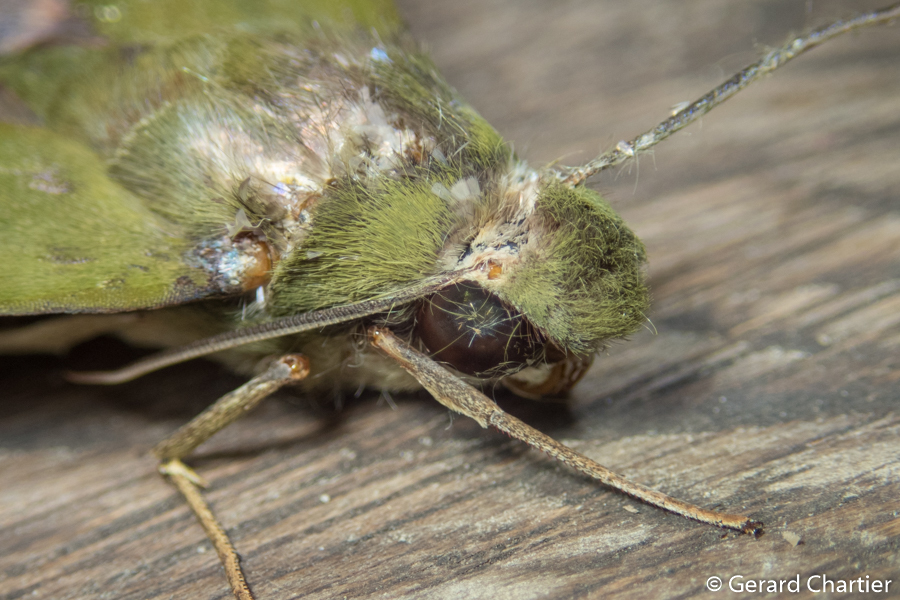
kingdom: Animalia
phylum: Arthropoda
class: Insecta
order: Lepidoptera
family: Sphingidae
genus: Angonyx
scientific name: Angonyx testacea
